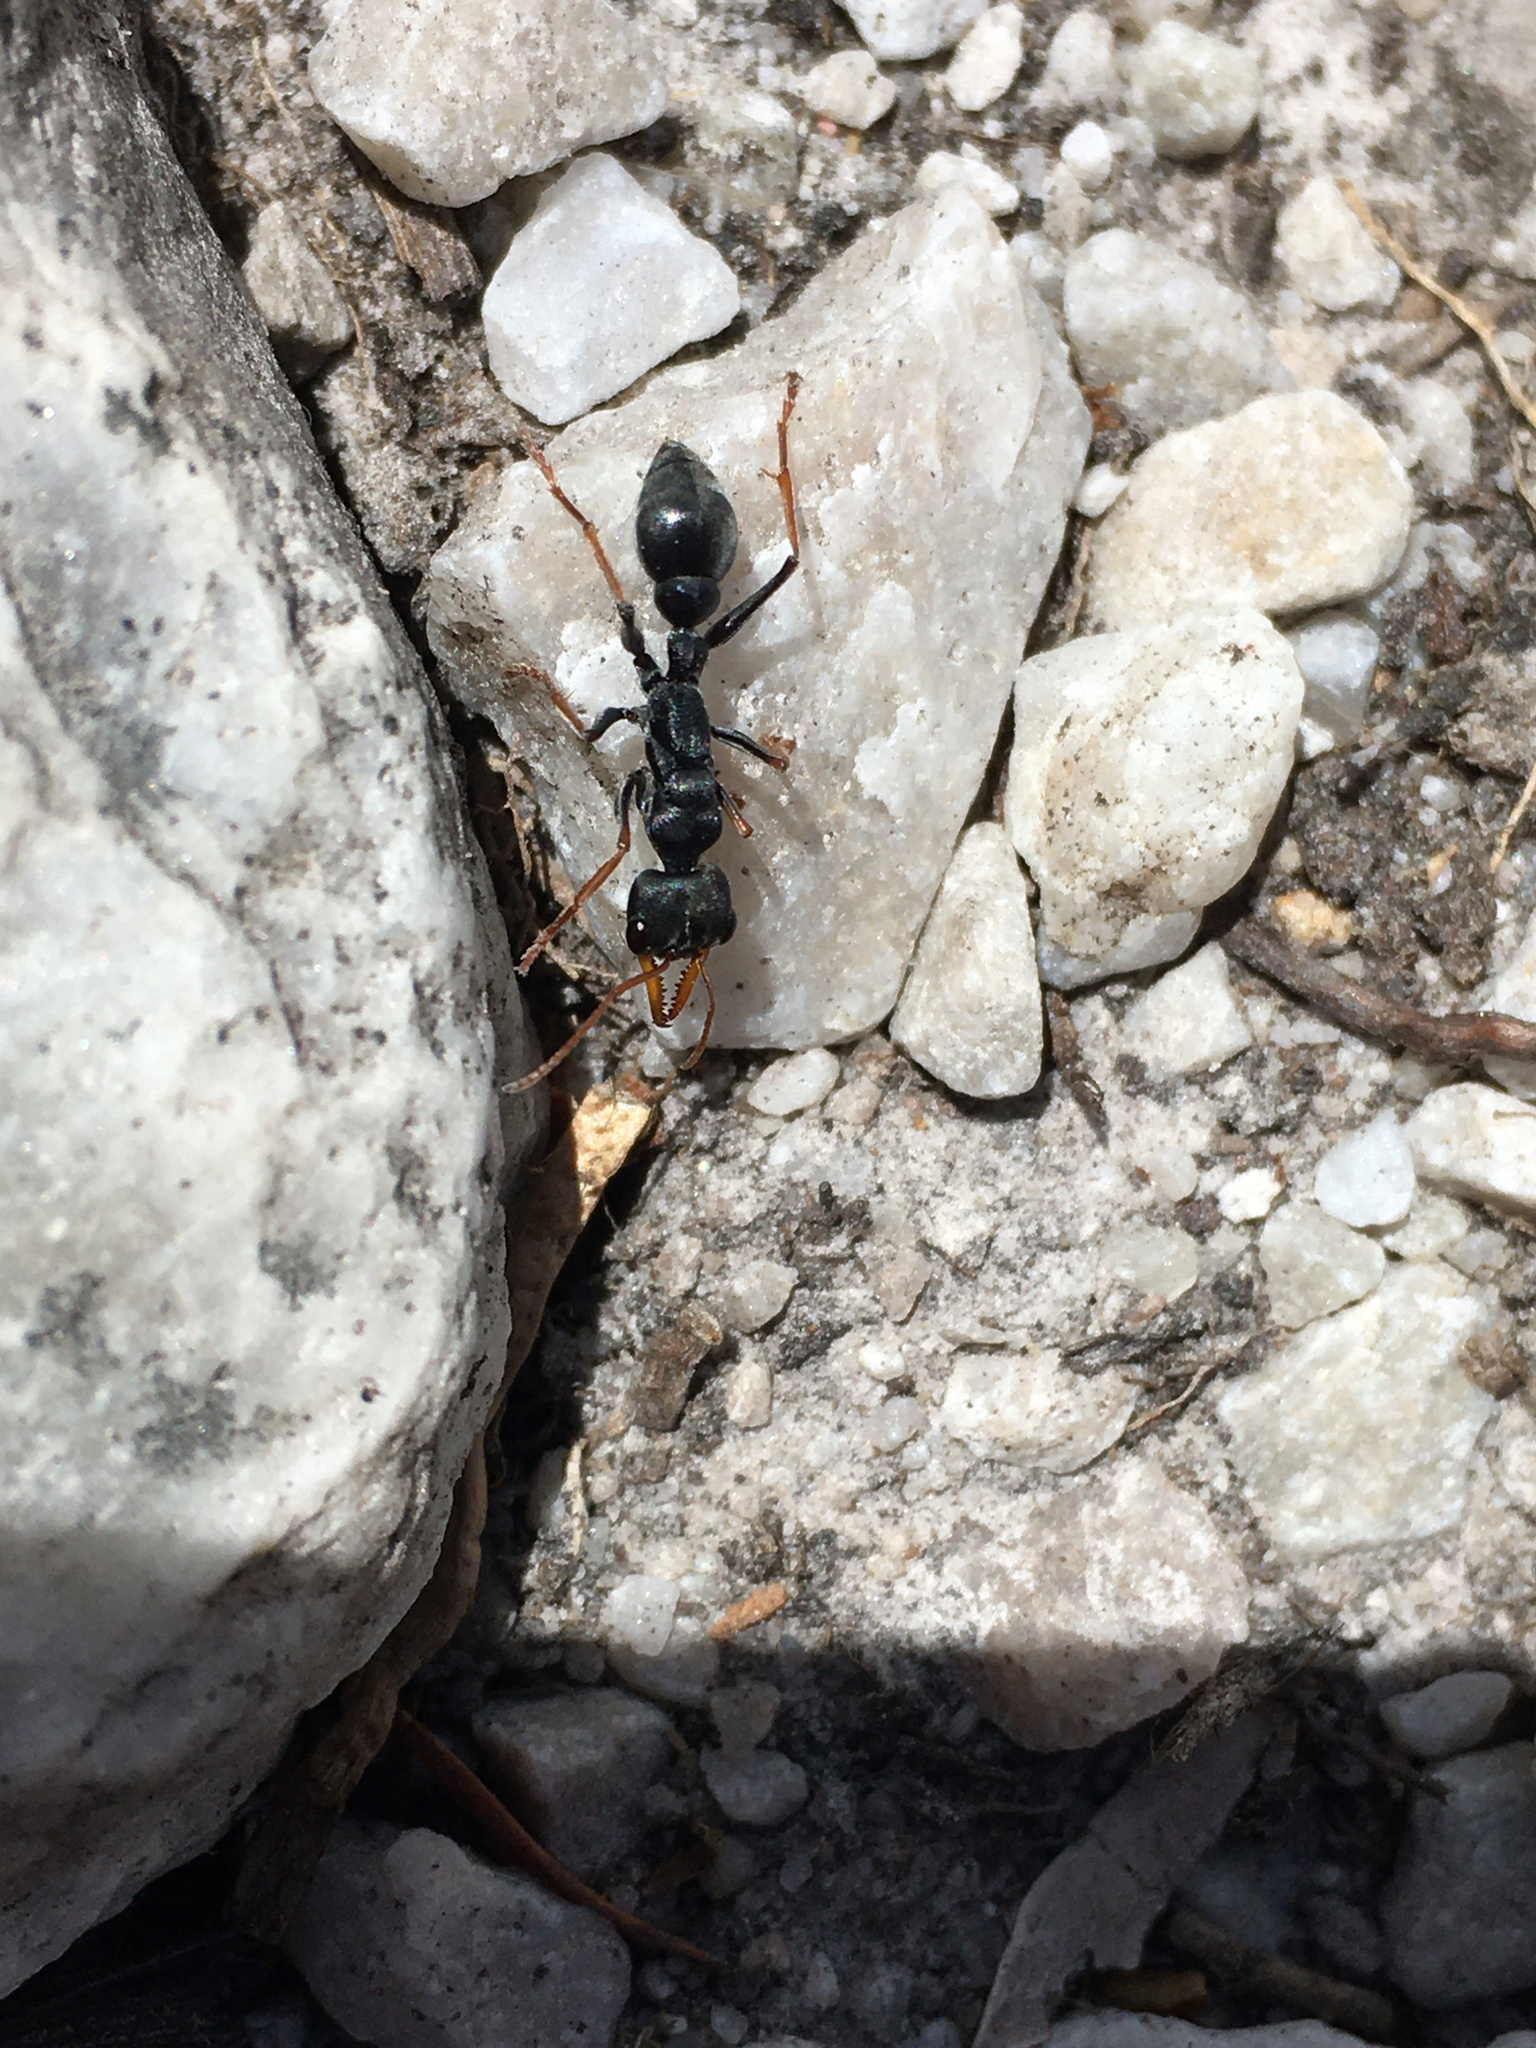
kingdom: Animalia
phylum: Arthropoda
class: Insecta
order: Hymenoptera
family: Formicidae
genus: Myrmecia
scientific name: Myrmecia pilosula
